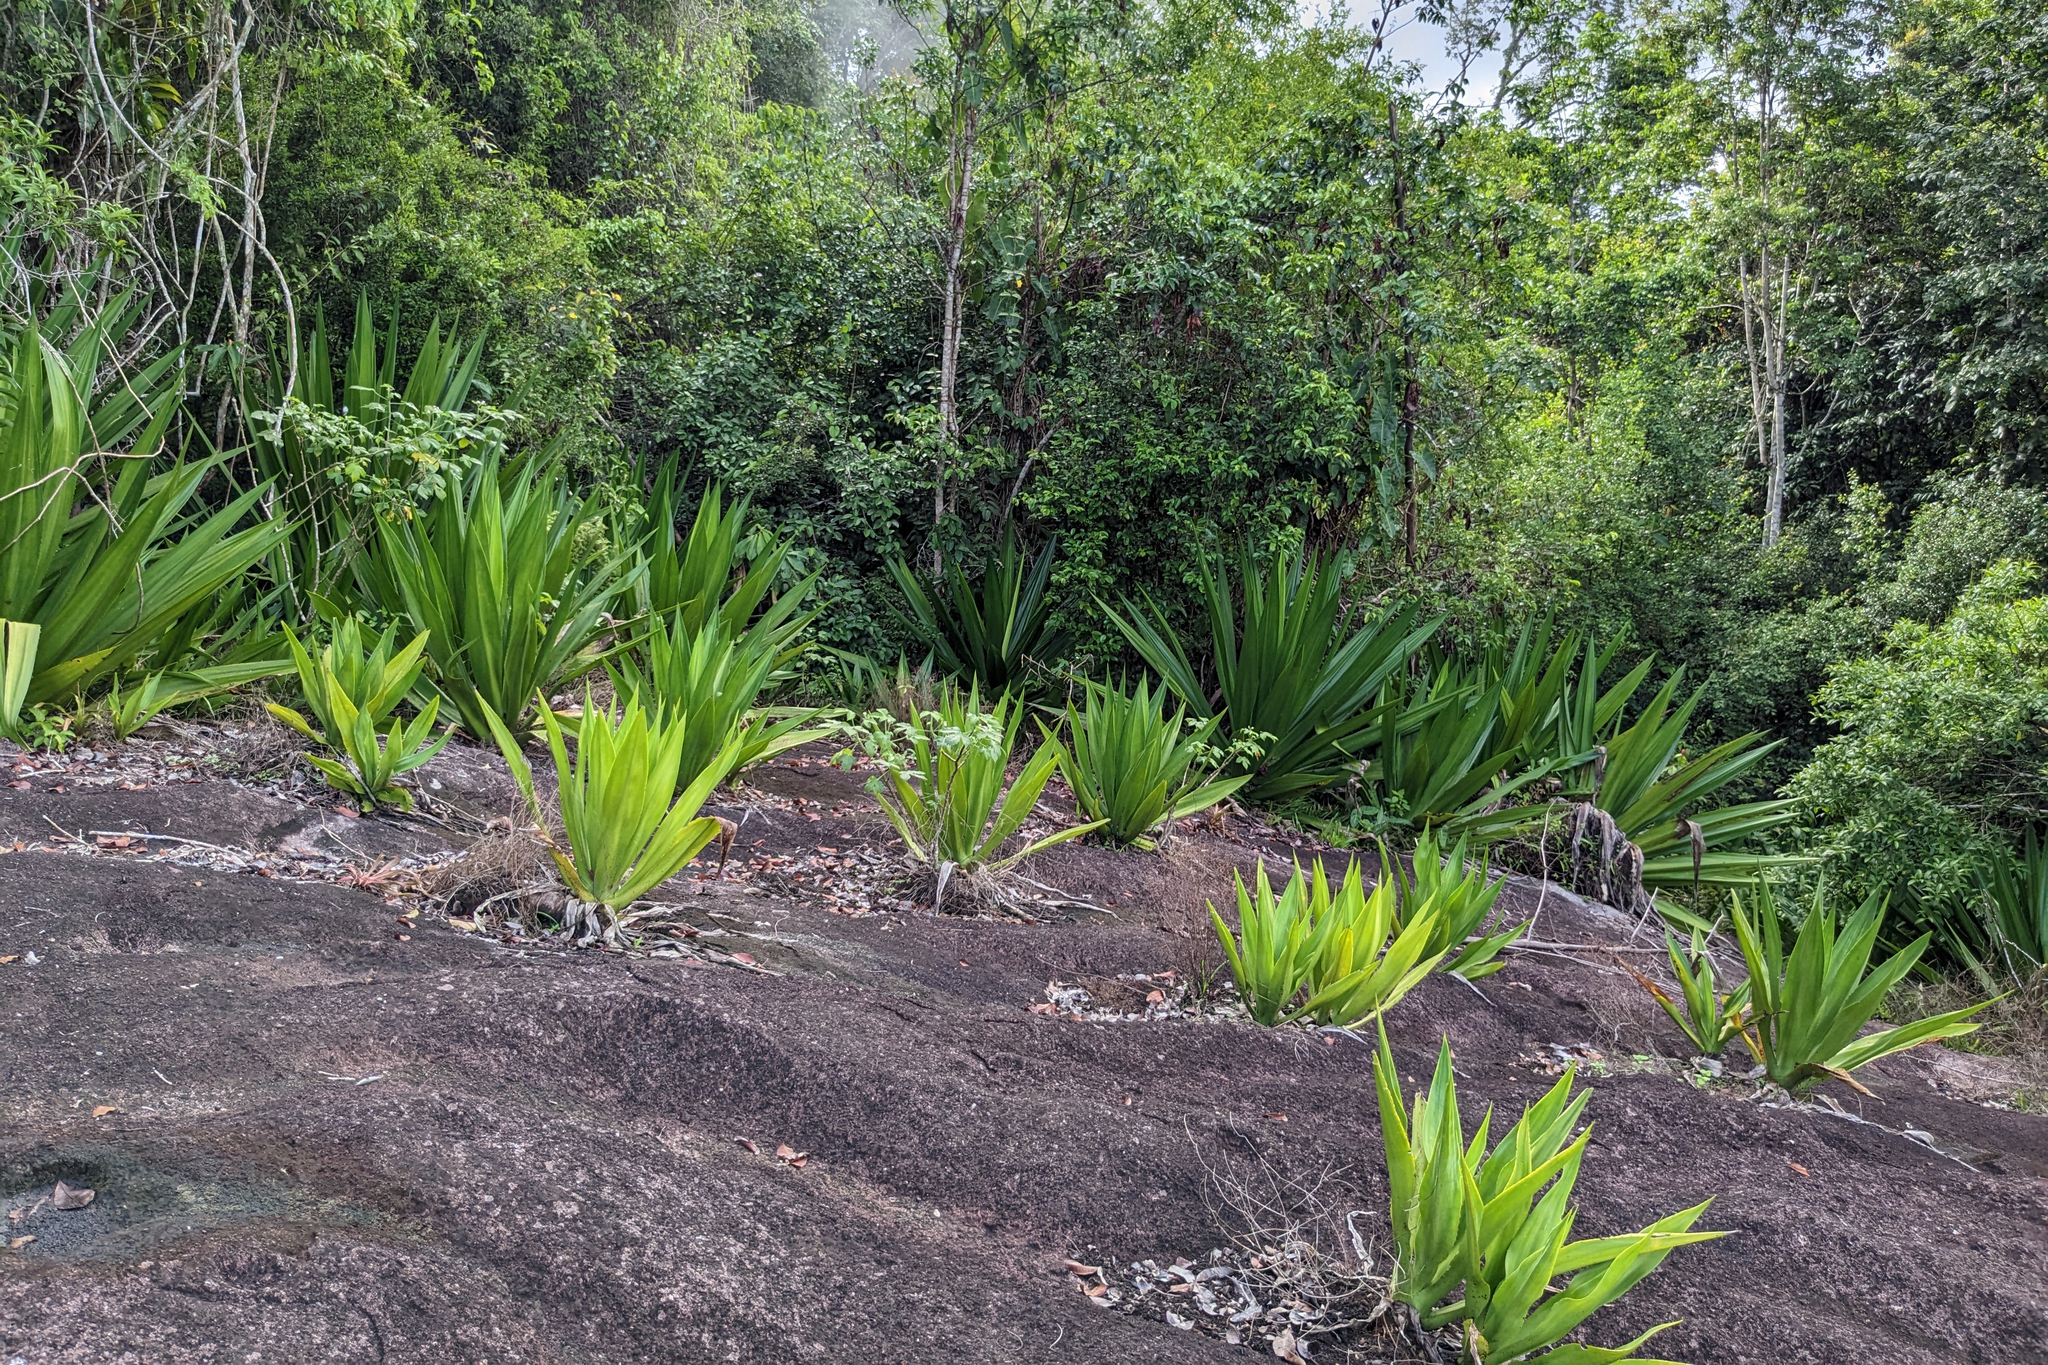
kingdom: Plantae
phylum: Tracheophyta
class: Liliopsida
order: Asparagales
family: Asparagaceae
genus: Furcraea
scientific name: Furcraea foetida
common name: Mauritius hemp
